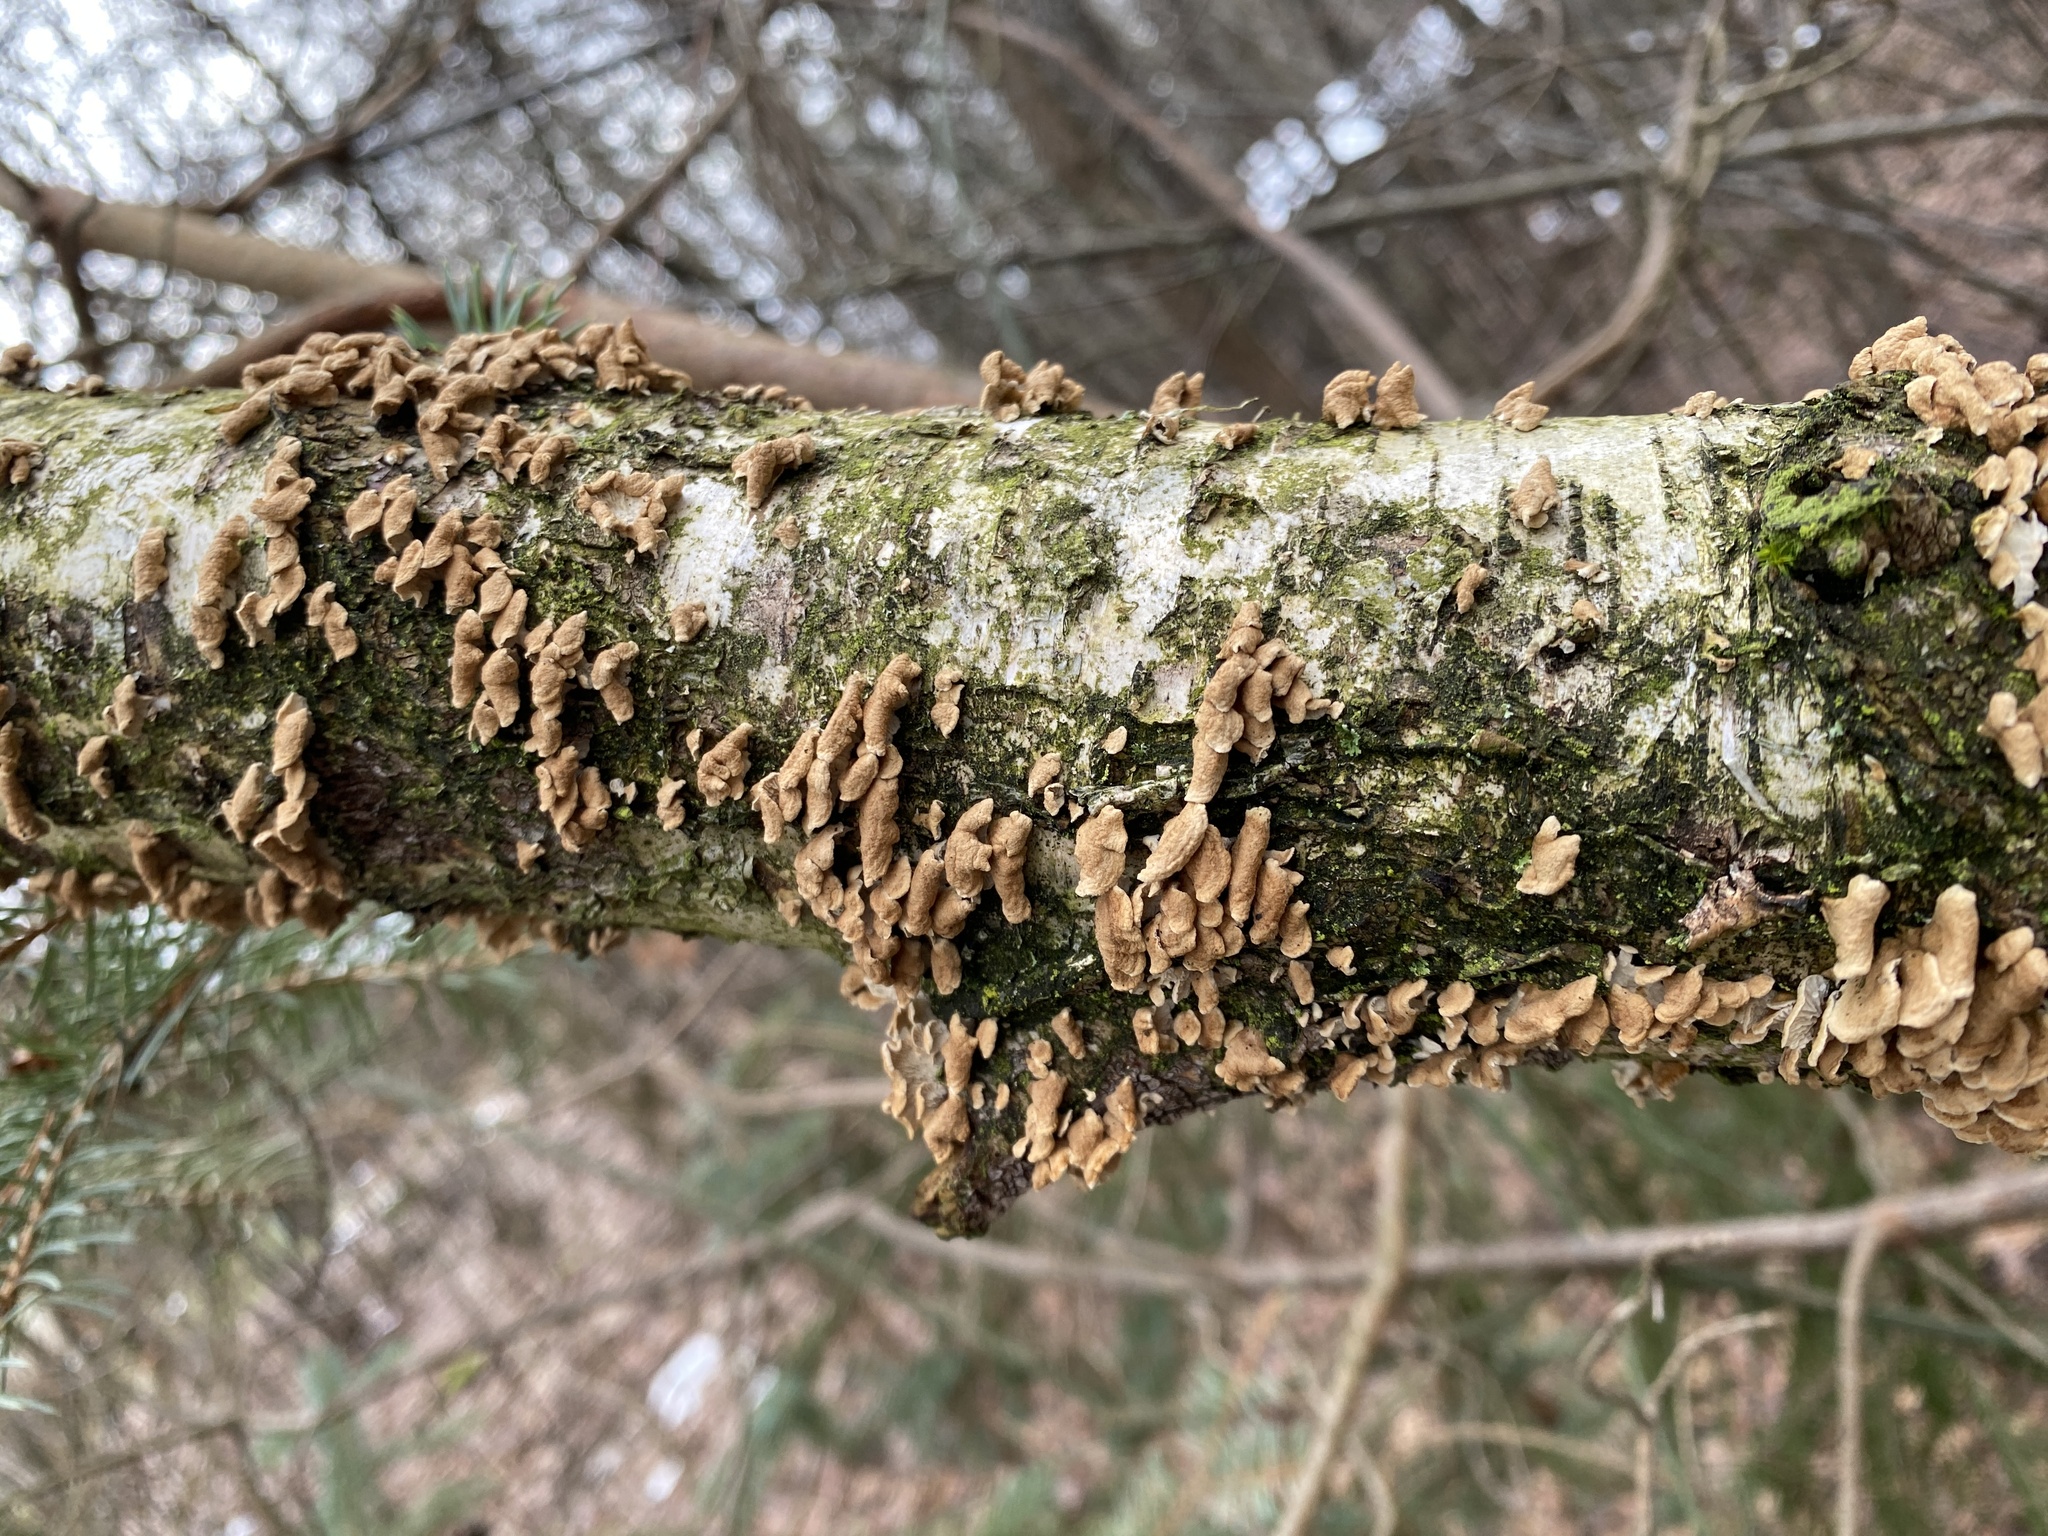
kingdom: Fungi
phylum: Basidiomycota
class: Agaricomycetes
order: Amylocorticiales
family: Amylocorticiaceae
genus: Plicaturopsis
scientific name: Plicaturopsis crispa
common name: Crimped gill
